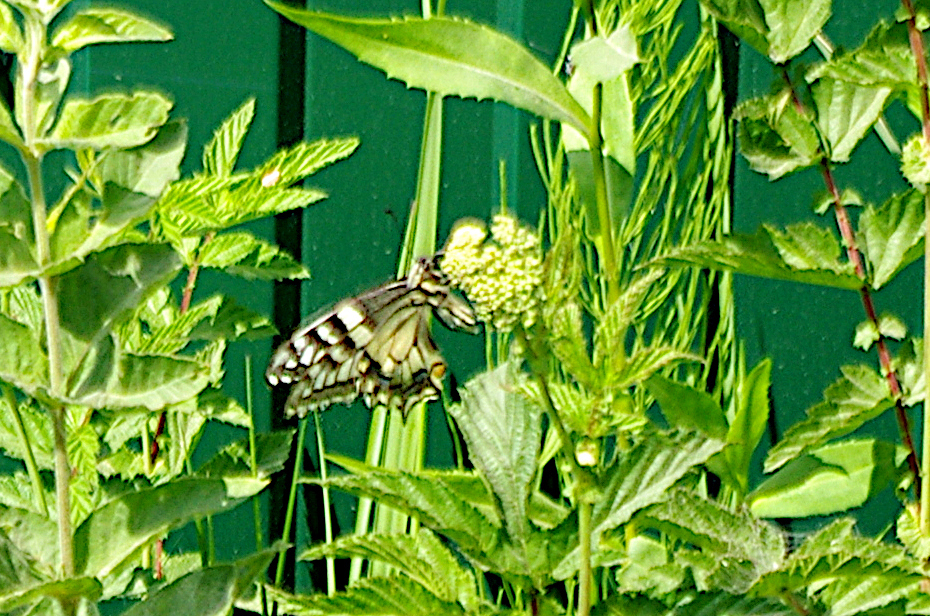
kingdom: Animalia
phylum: Arthropoda
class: Insecta
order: Lepidoptera
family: Papilionidae
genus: Papilio
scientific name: Papilio machaon
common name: Swallowtail
